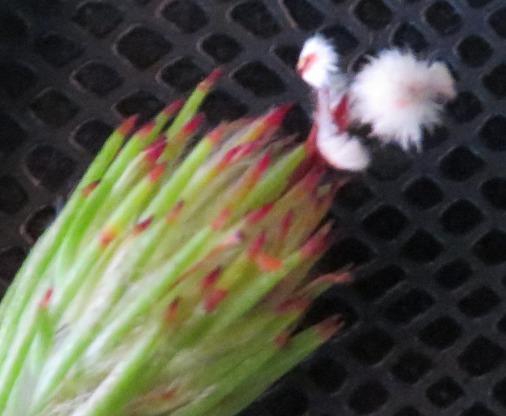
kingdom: Plantae
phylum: Tracheophyta
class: Magnoliopsida
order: Proteales
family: Proteaceae
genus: Spatalla
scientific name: Spatalla prolifera
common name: Palmiet spoon
